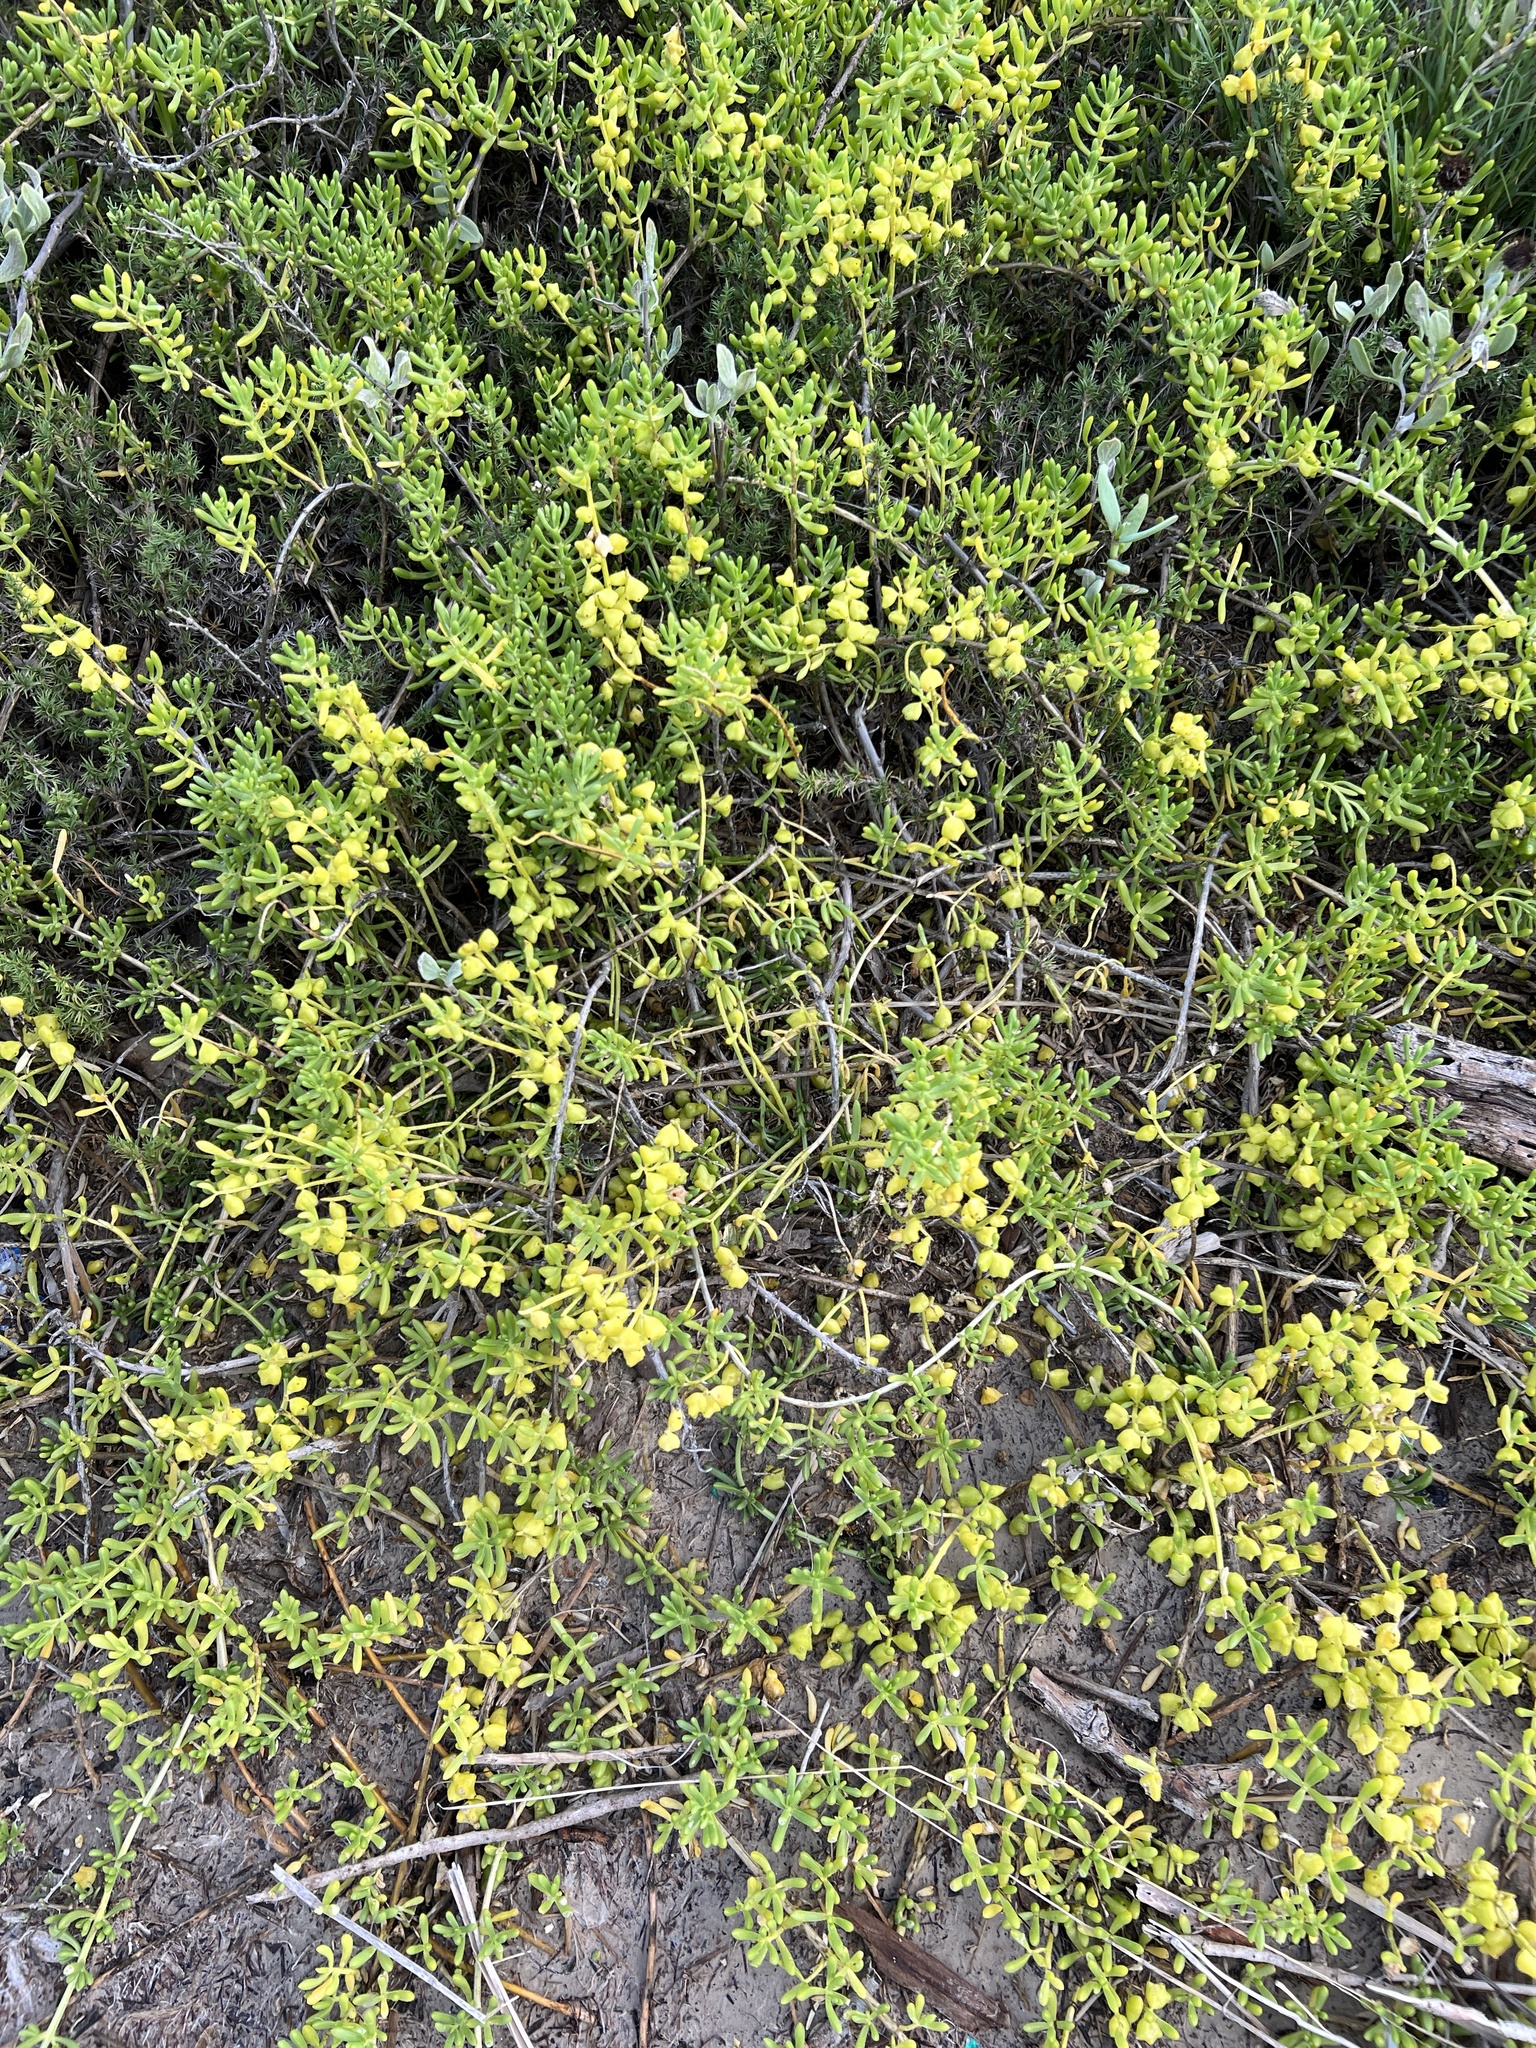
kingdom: Plantae
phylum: Tracheophyta
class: Magnoliopsida
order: Brassicales
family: Bataceae
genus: Batis
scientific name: Batis maritima
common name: Turtleweed
